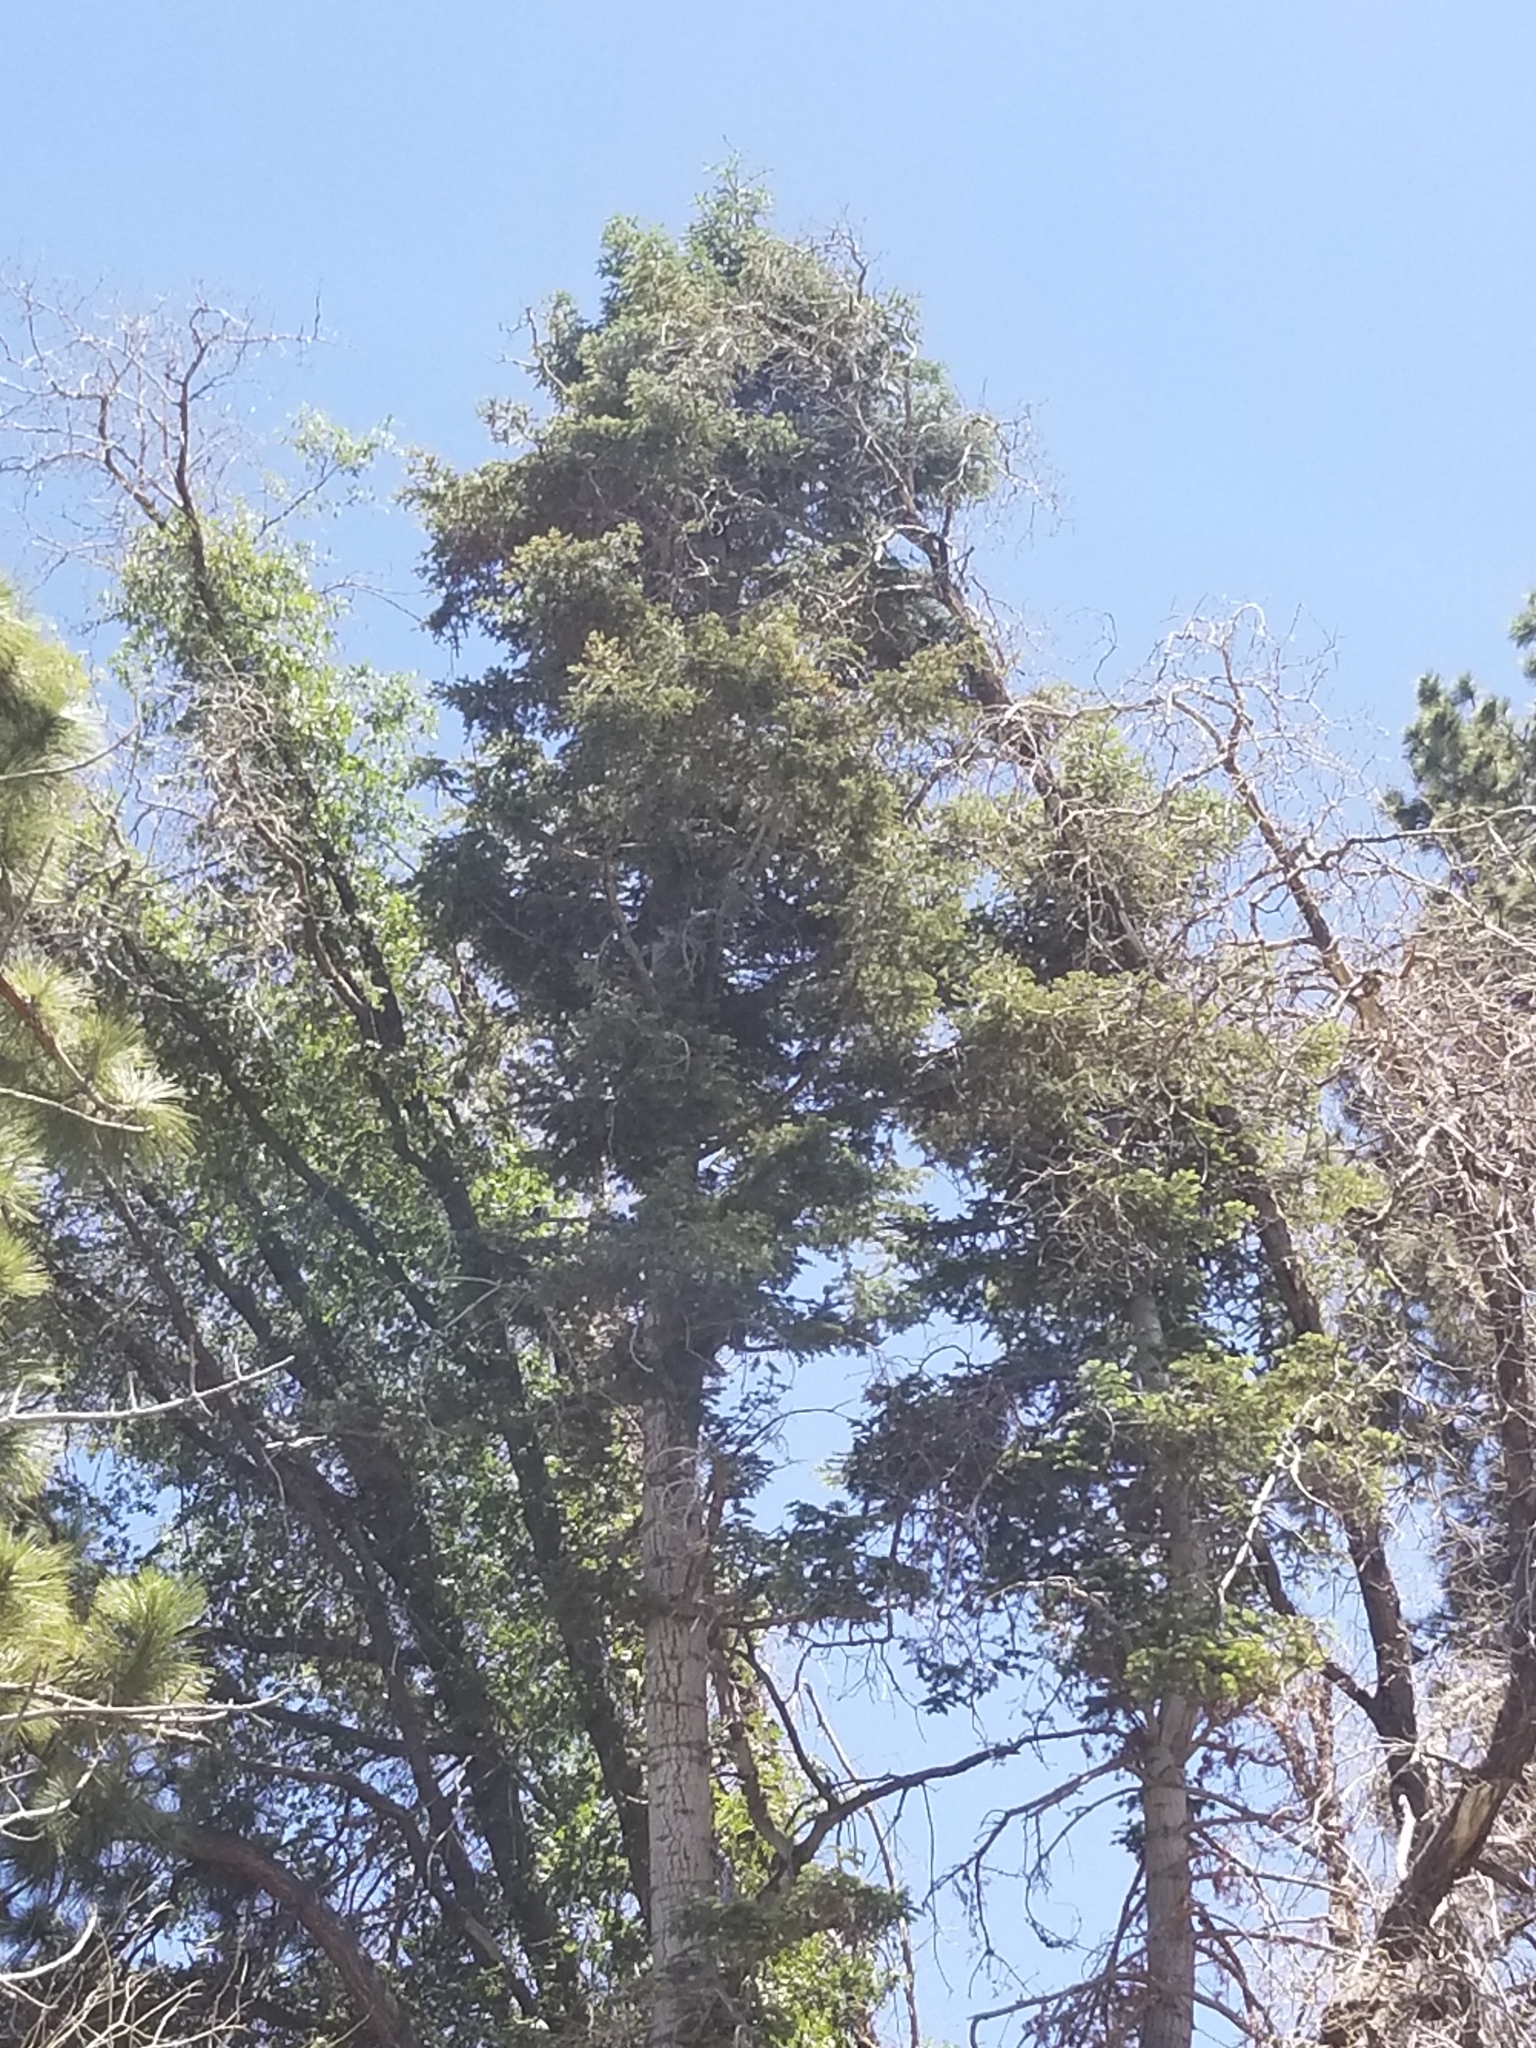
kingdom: Plantae
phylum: Tracheophyta
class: Pinopsida
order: Pinales
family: Pinaceae
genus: Abies
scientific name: Abies concolor
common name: Colorado fir
